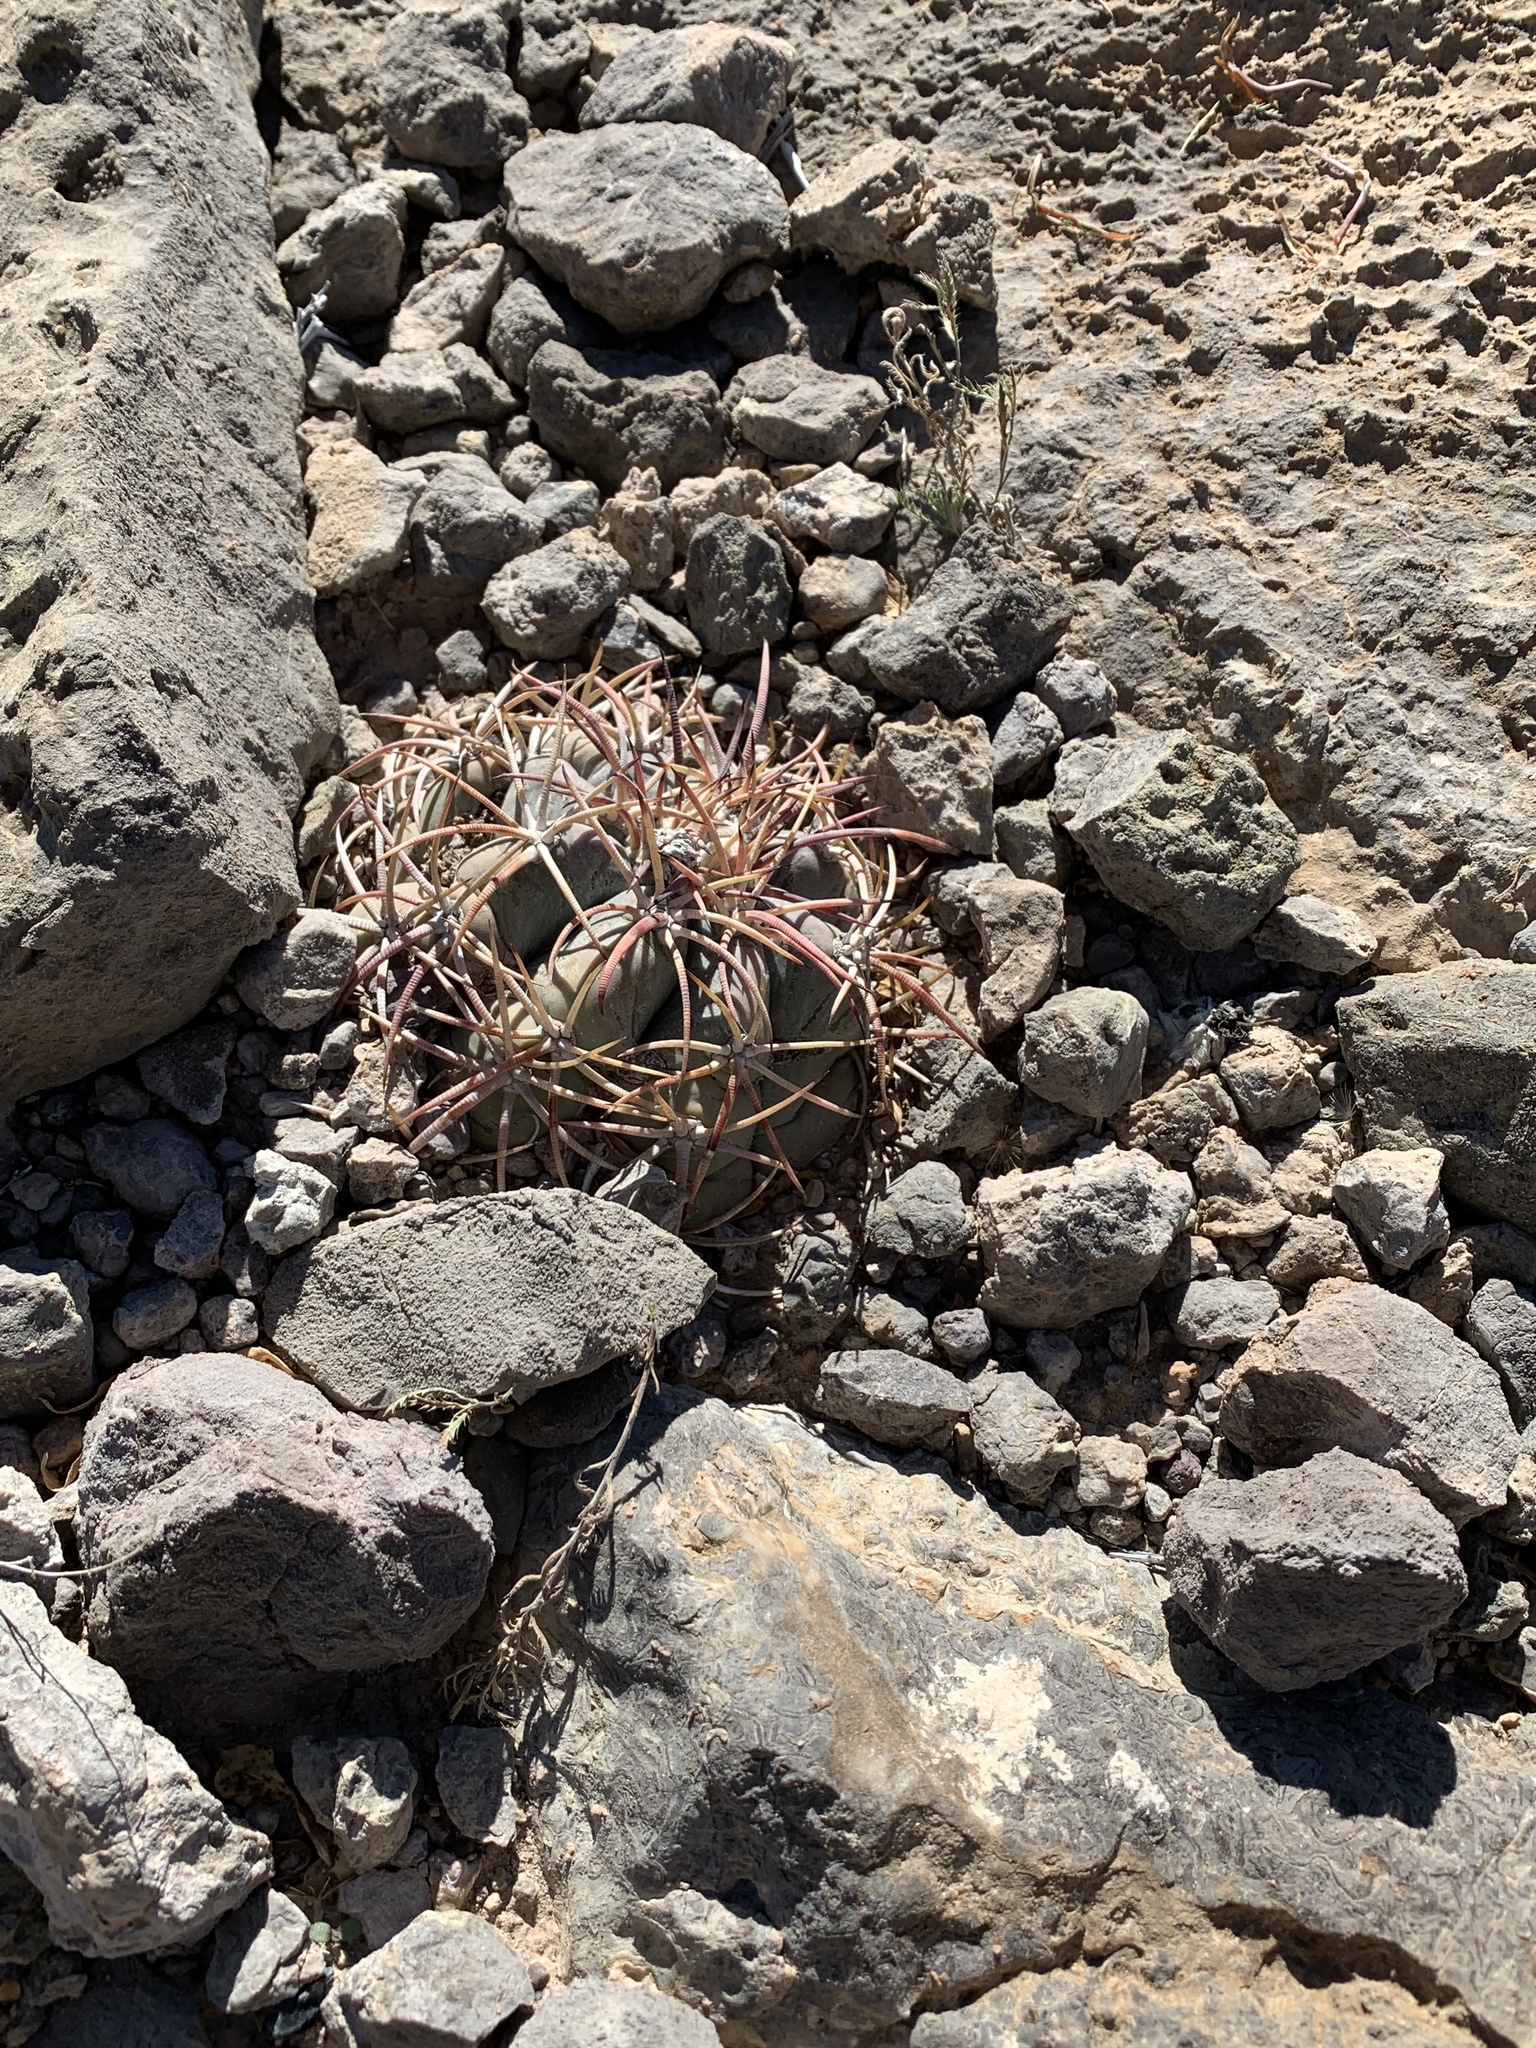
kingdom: Plantae
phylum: Tracheophyta
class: Magnoliopsida
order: Caryophyllales
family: Cactaceae
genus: Echinocactus
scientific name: Echinocactus horizonthalonius
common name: Devilshead
